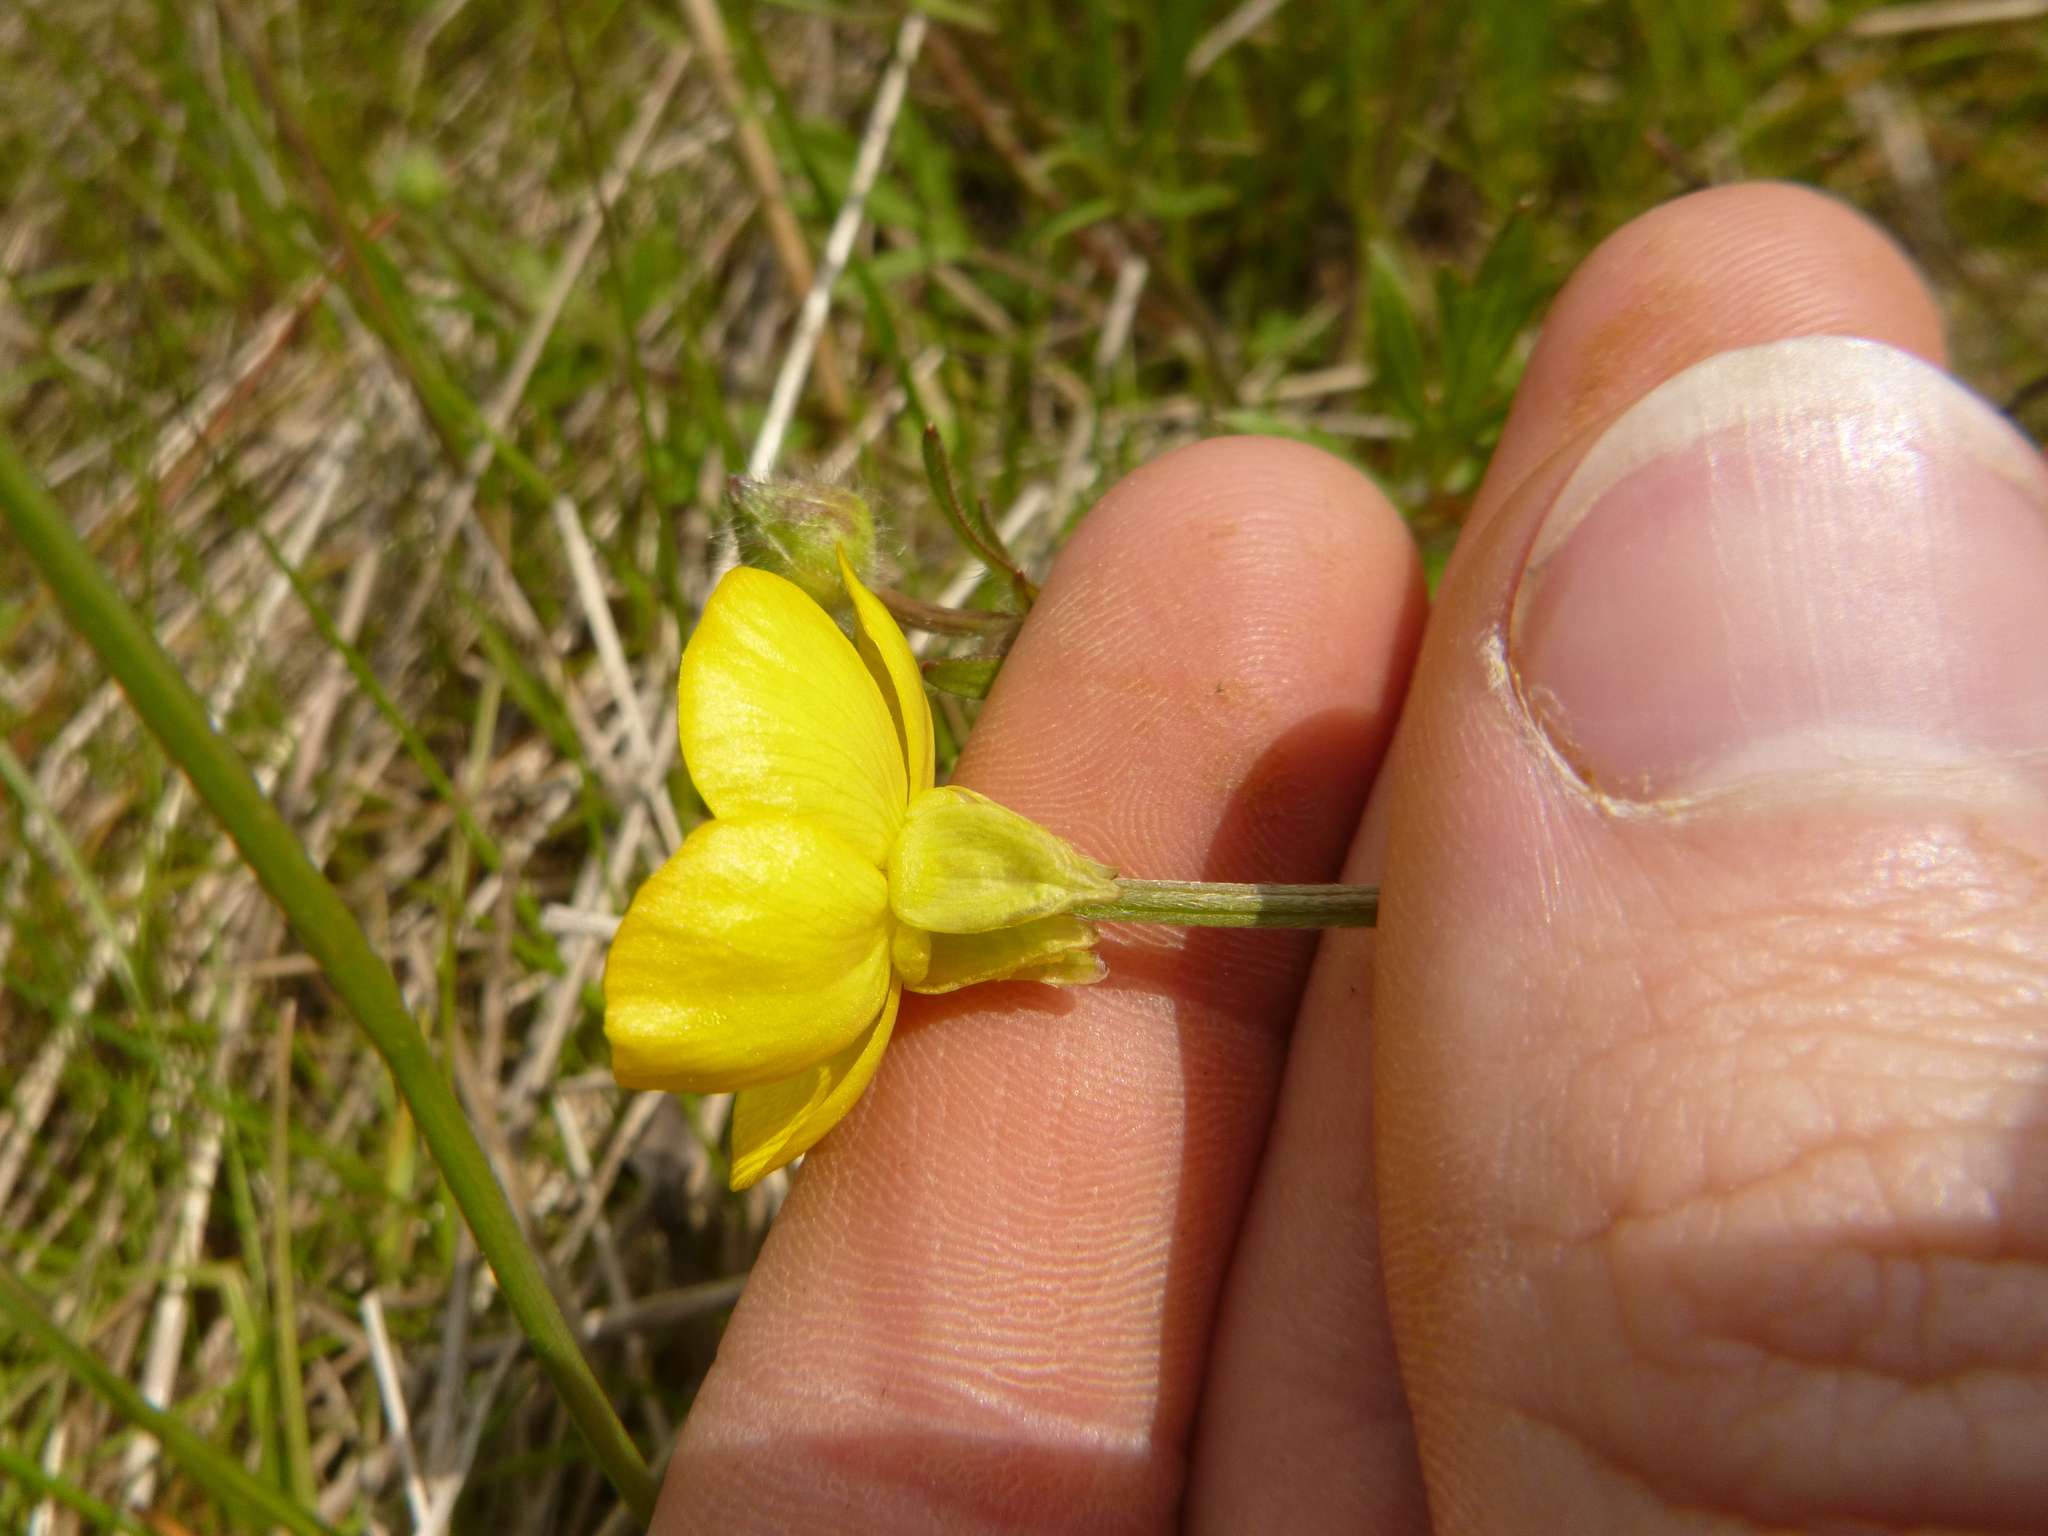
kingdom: Plantae
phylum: Tracheophyta
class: Magnoliopsida
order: Ranunculales
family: Ranunculaceae
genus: Ranunculus
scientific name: Ranunculus bulbosus
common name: Bulbous buttercup
